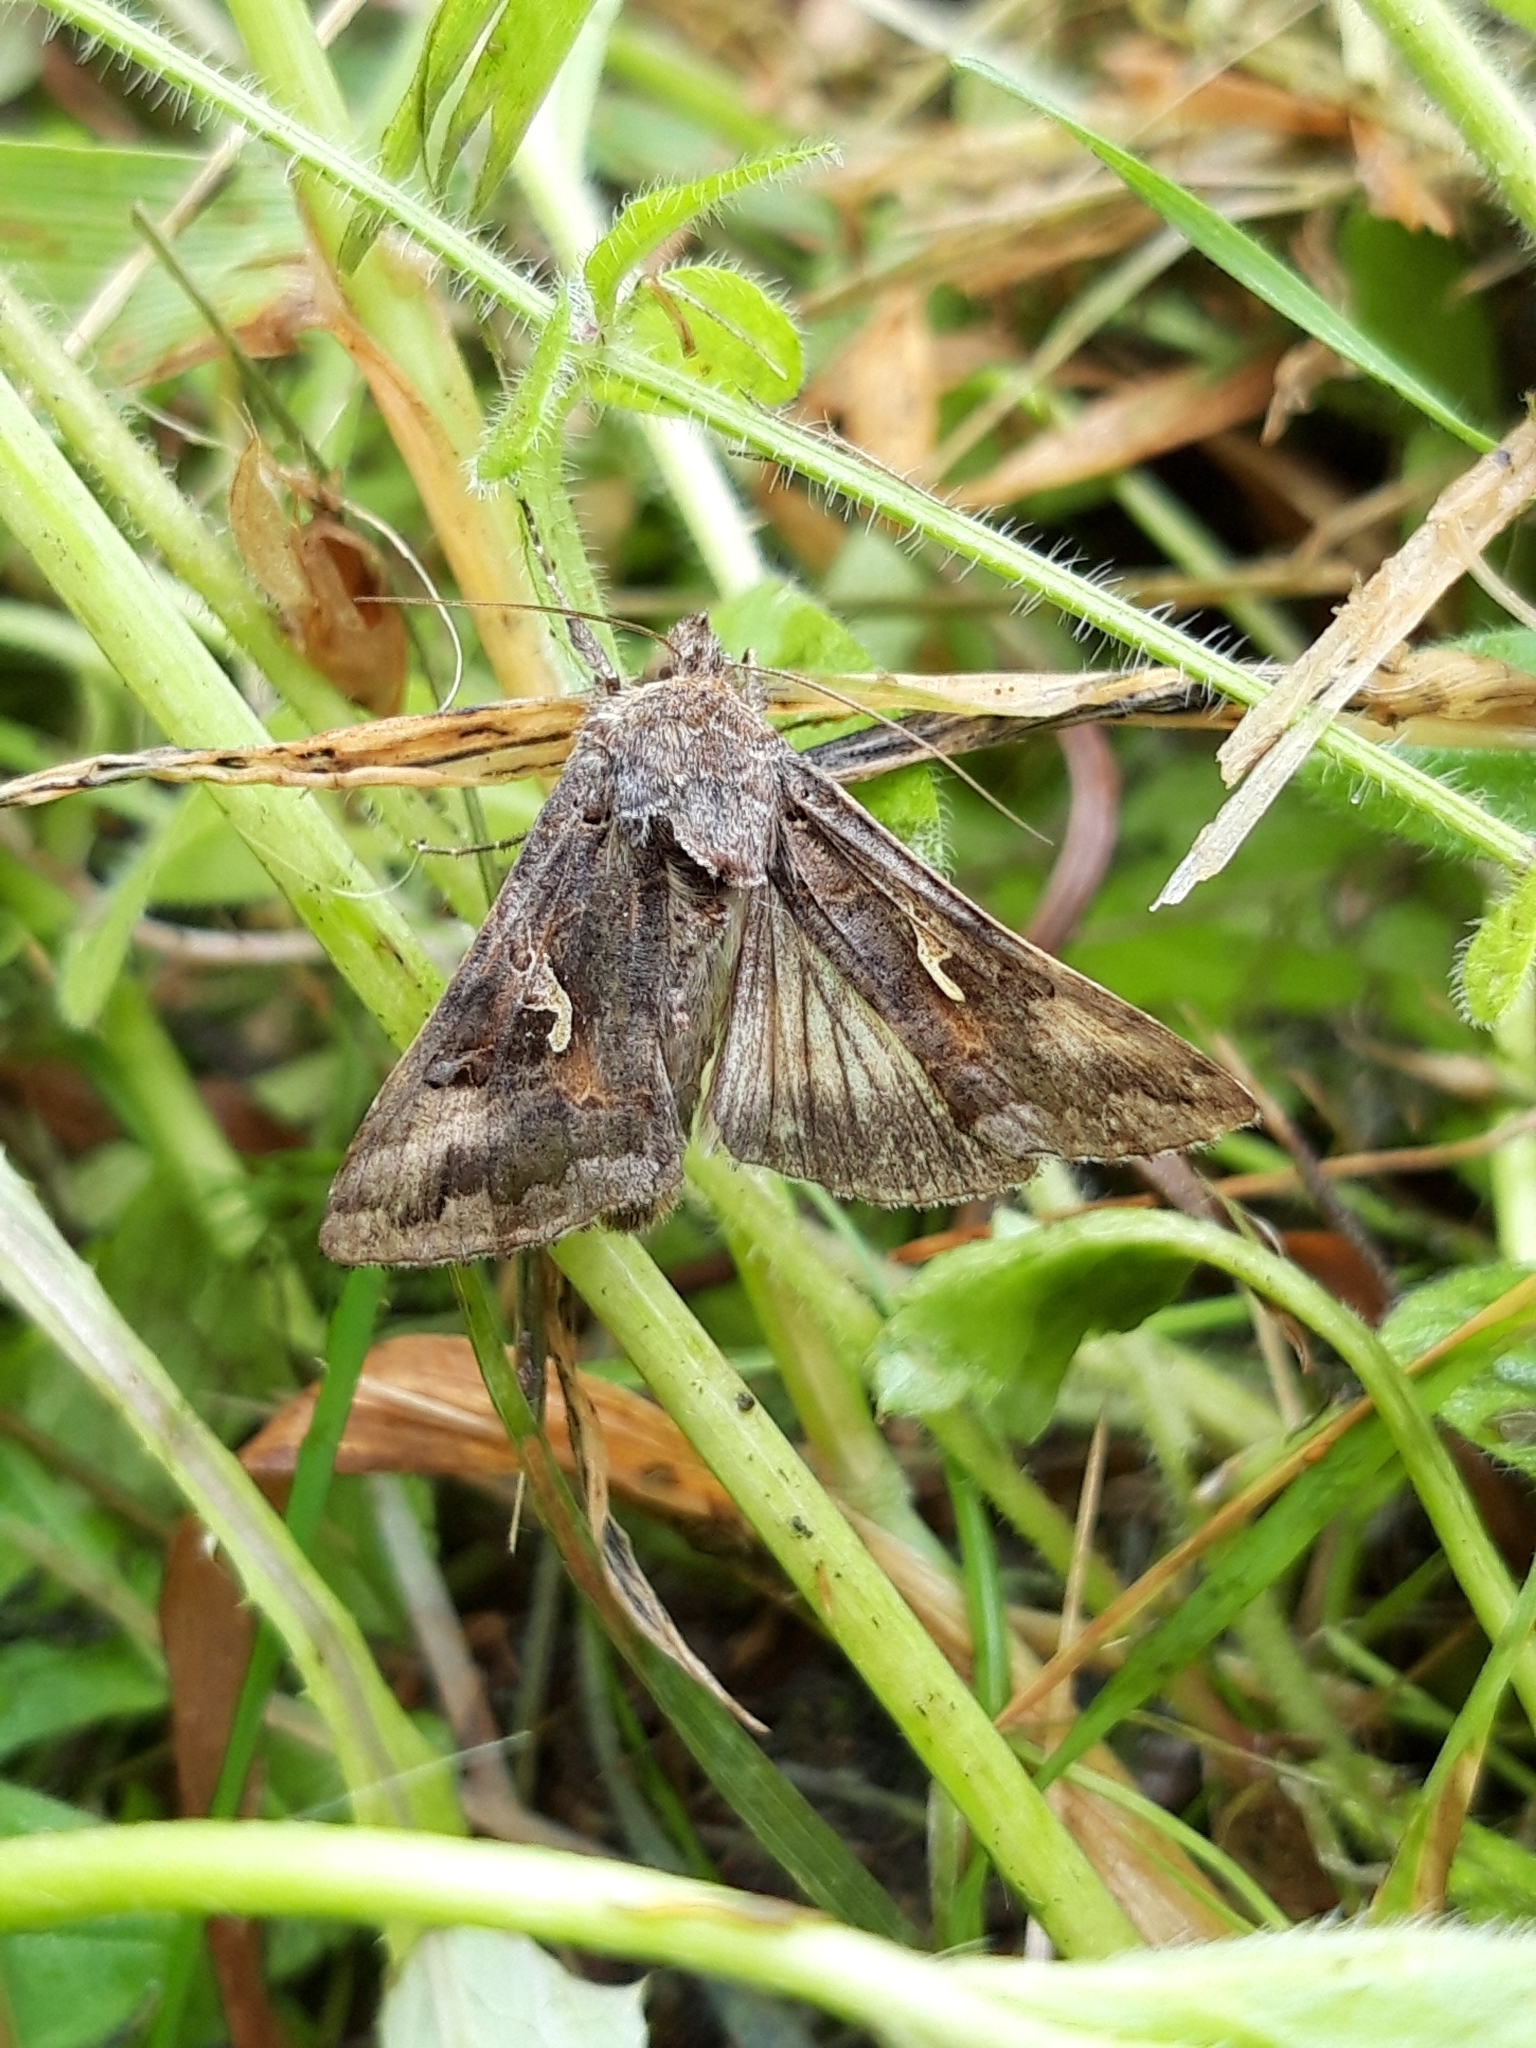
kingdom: Animalia
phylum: Arthropoda
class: Insecta
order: Lepidoptera
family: Noctuidae
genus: Autographa
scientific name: Autographa gamma
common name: Silver y
